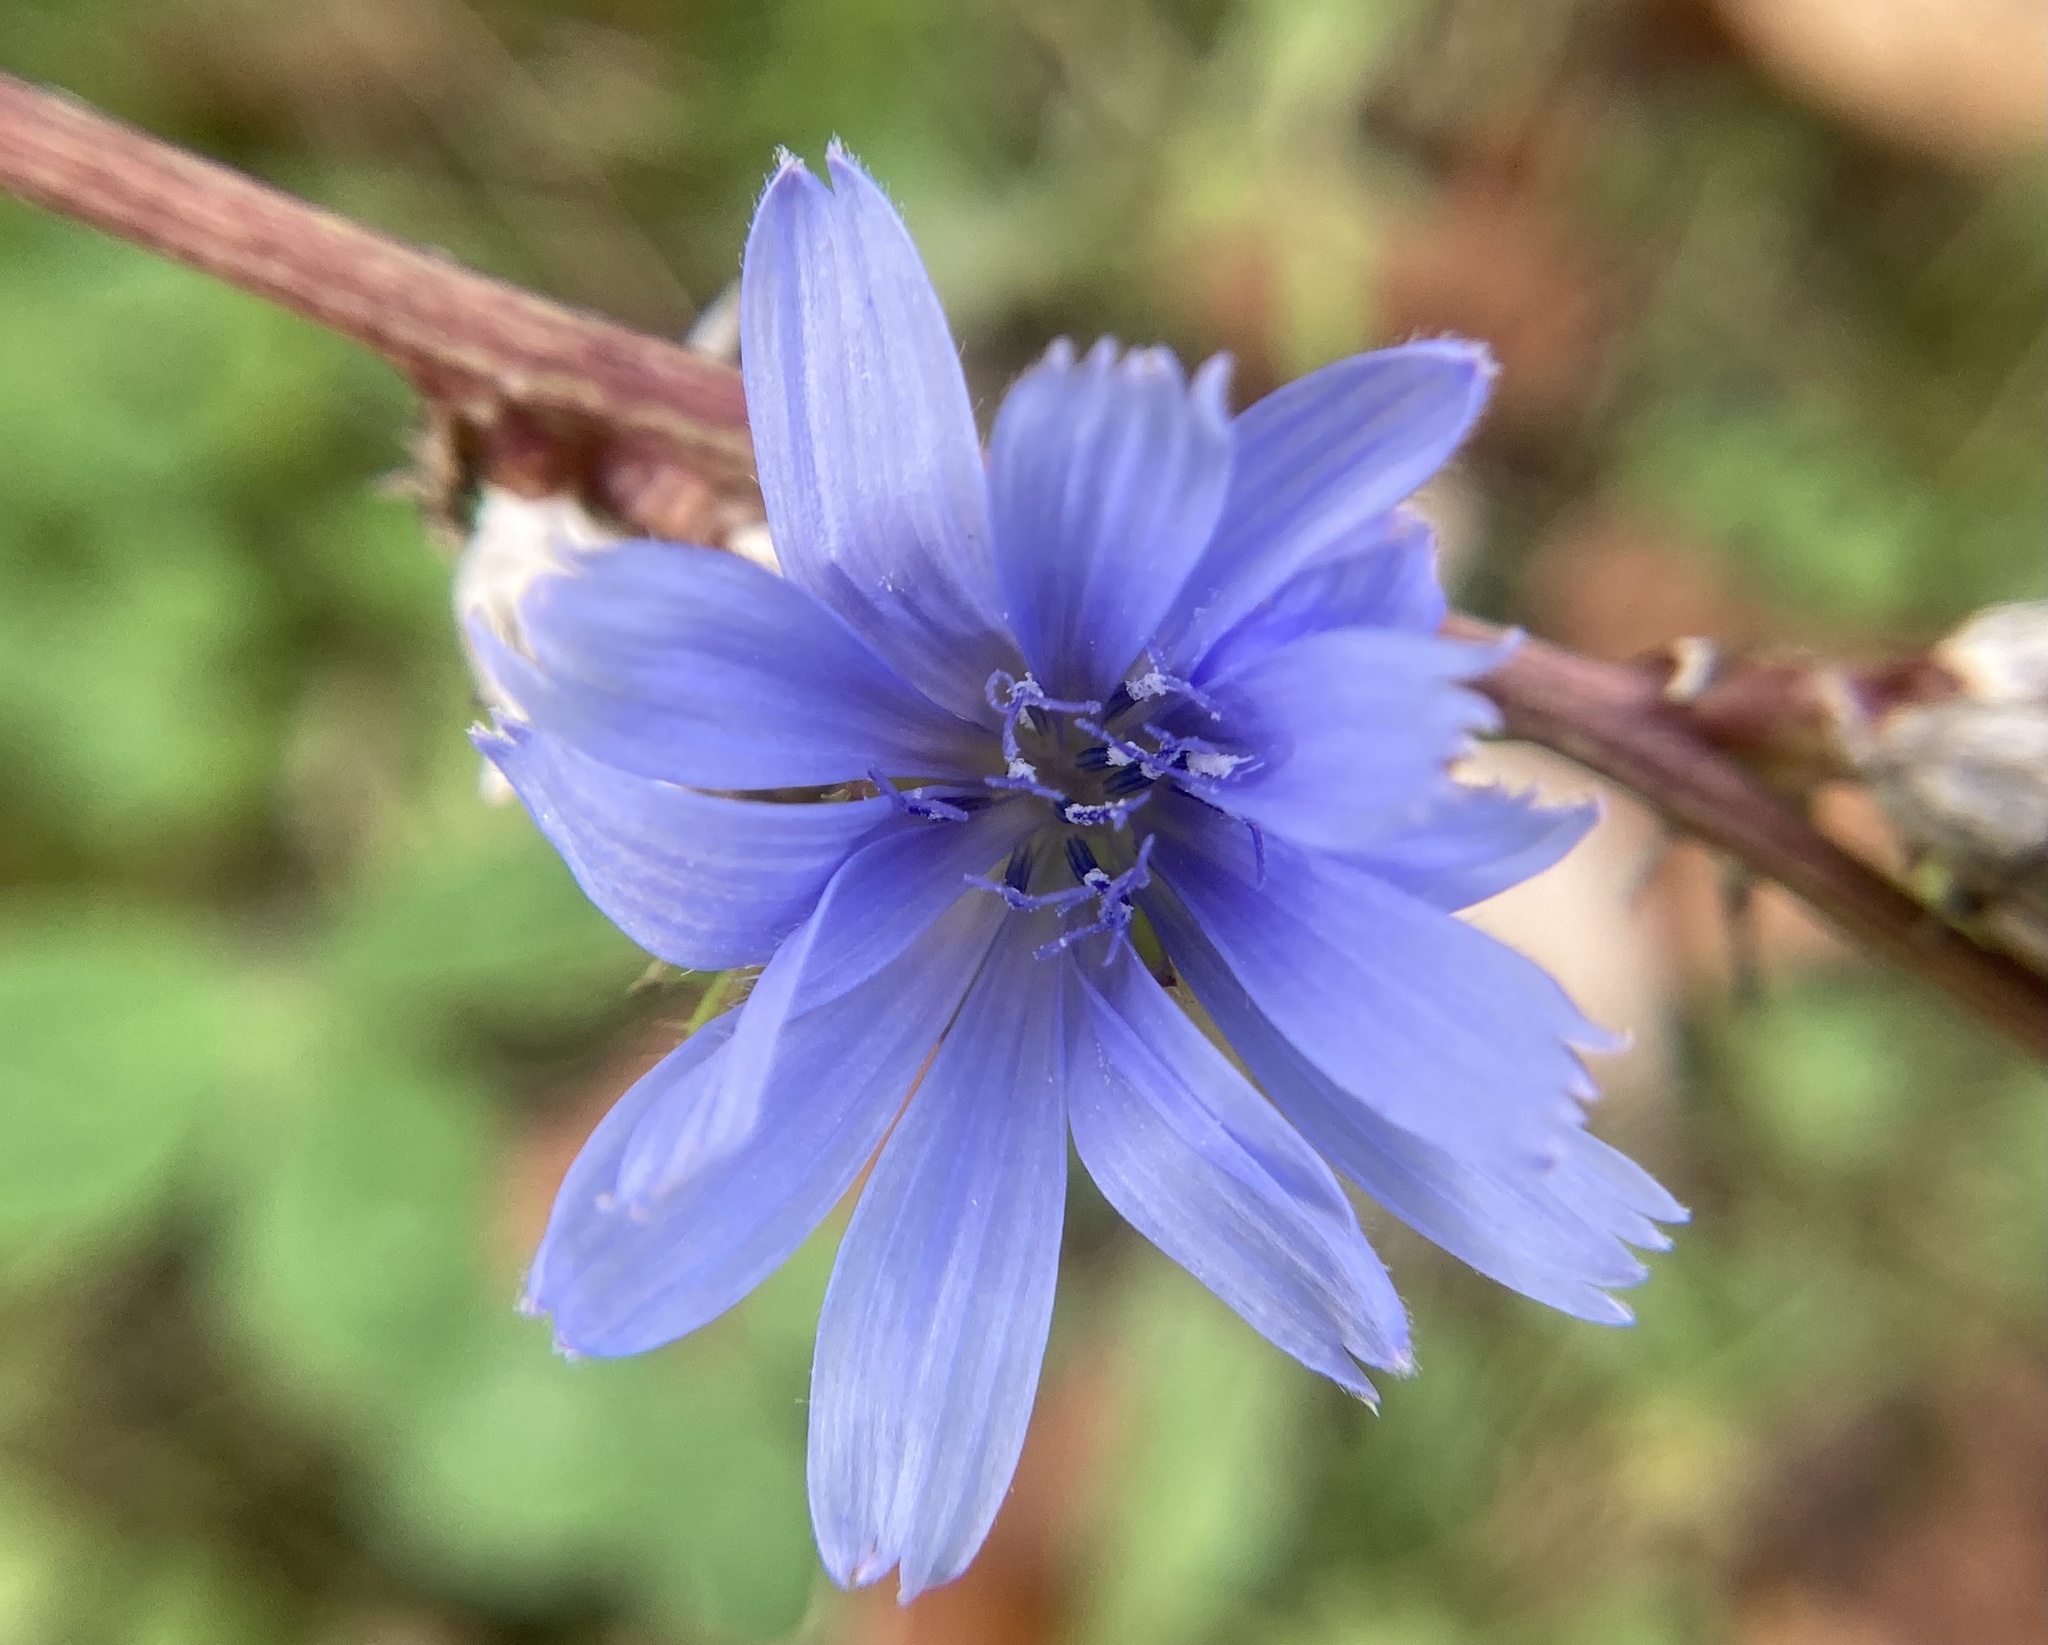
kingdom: Plantae
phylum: Tracheophyta
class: Magnoliopsida
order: Asterales
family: Asteraceae
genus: Cichorium
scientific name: Cichorium intybus
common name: Chicory
